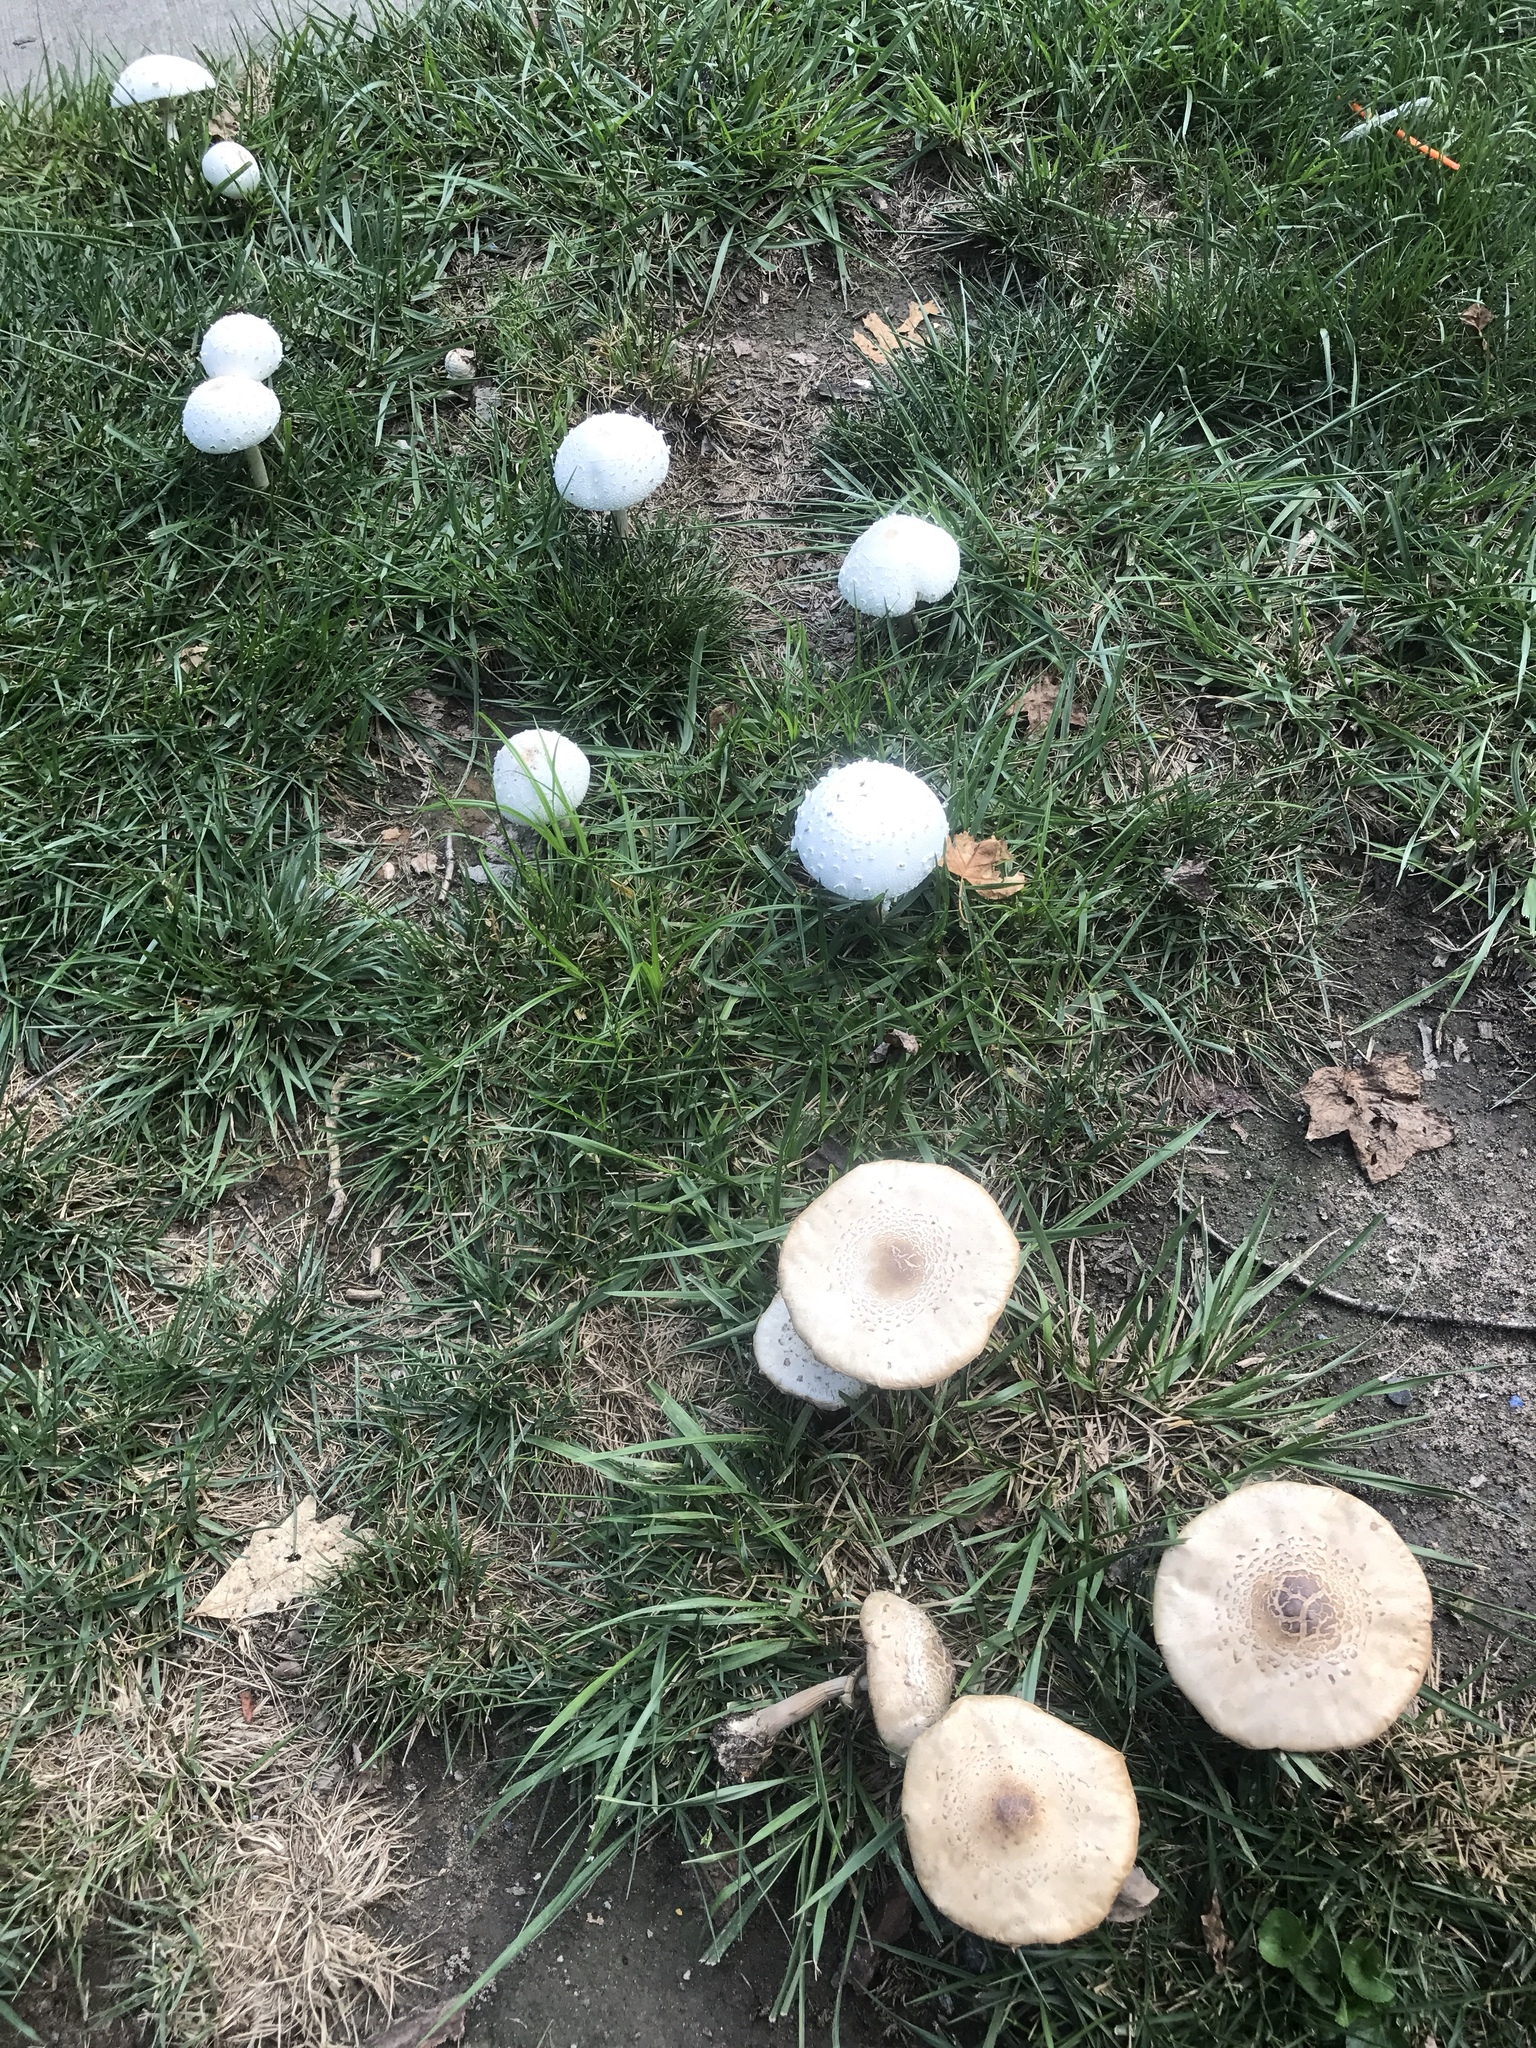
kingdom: Fungi
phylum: Basidiomycota
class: Agaricomycetes
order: Agaricales
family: Agaricaceae
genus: Chlorophyllum
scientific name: Chlorophyllum molybdites
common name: False parasol
